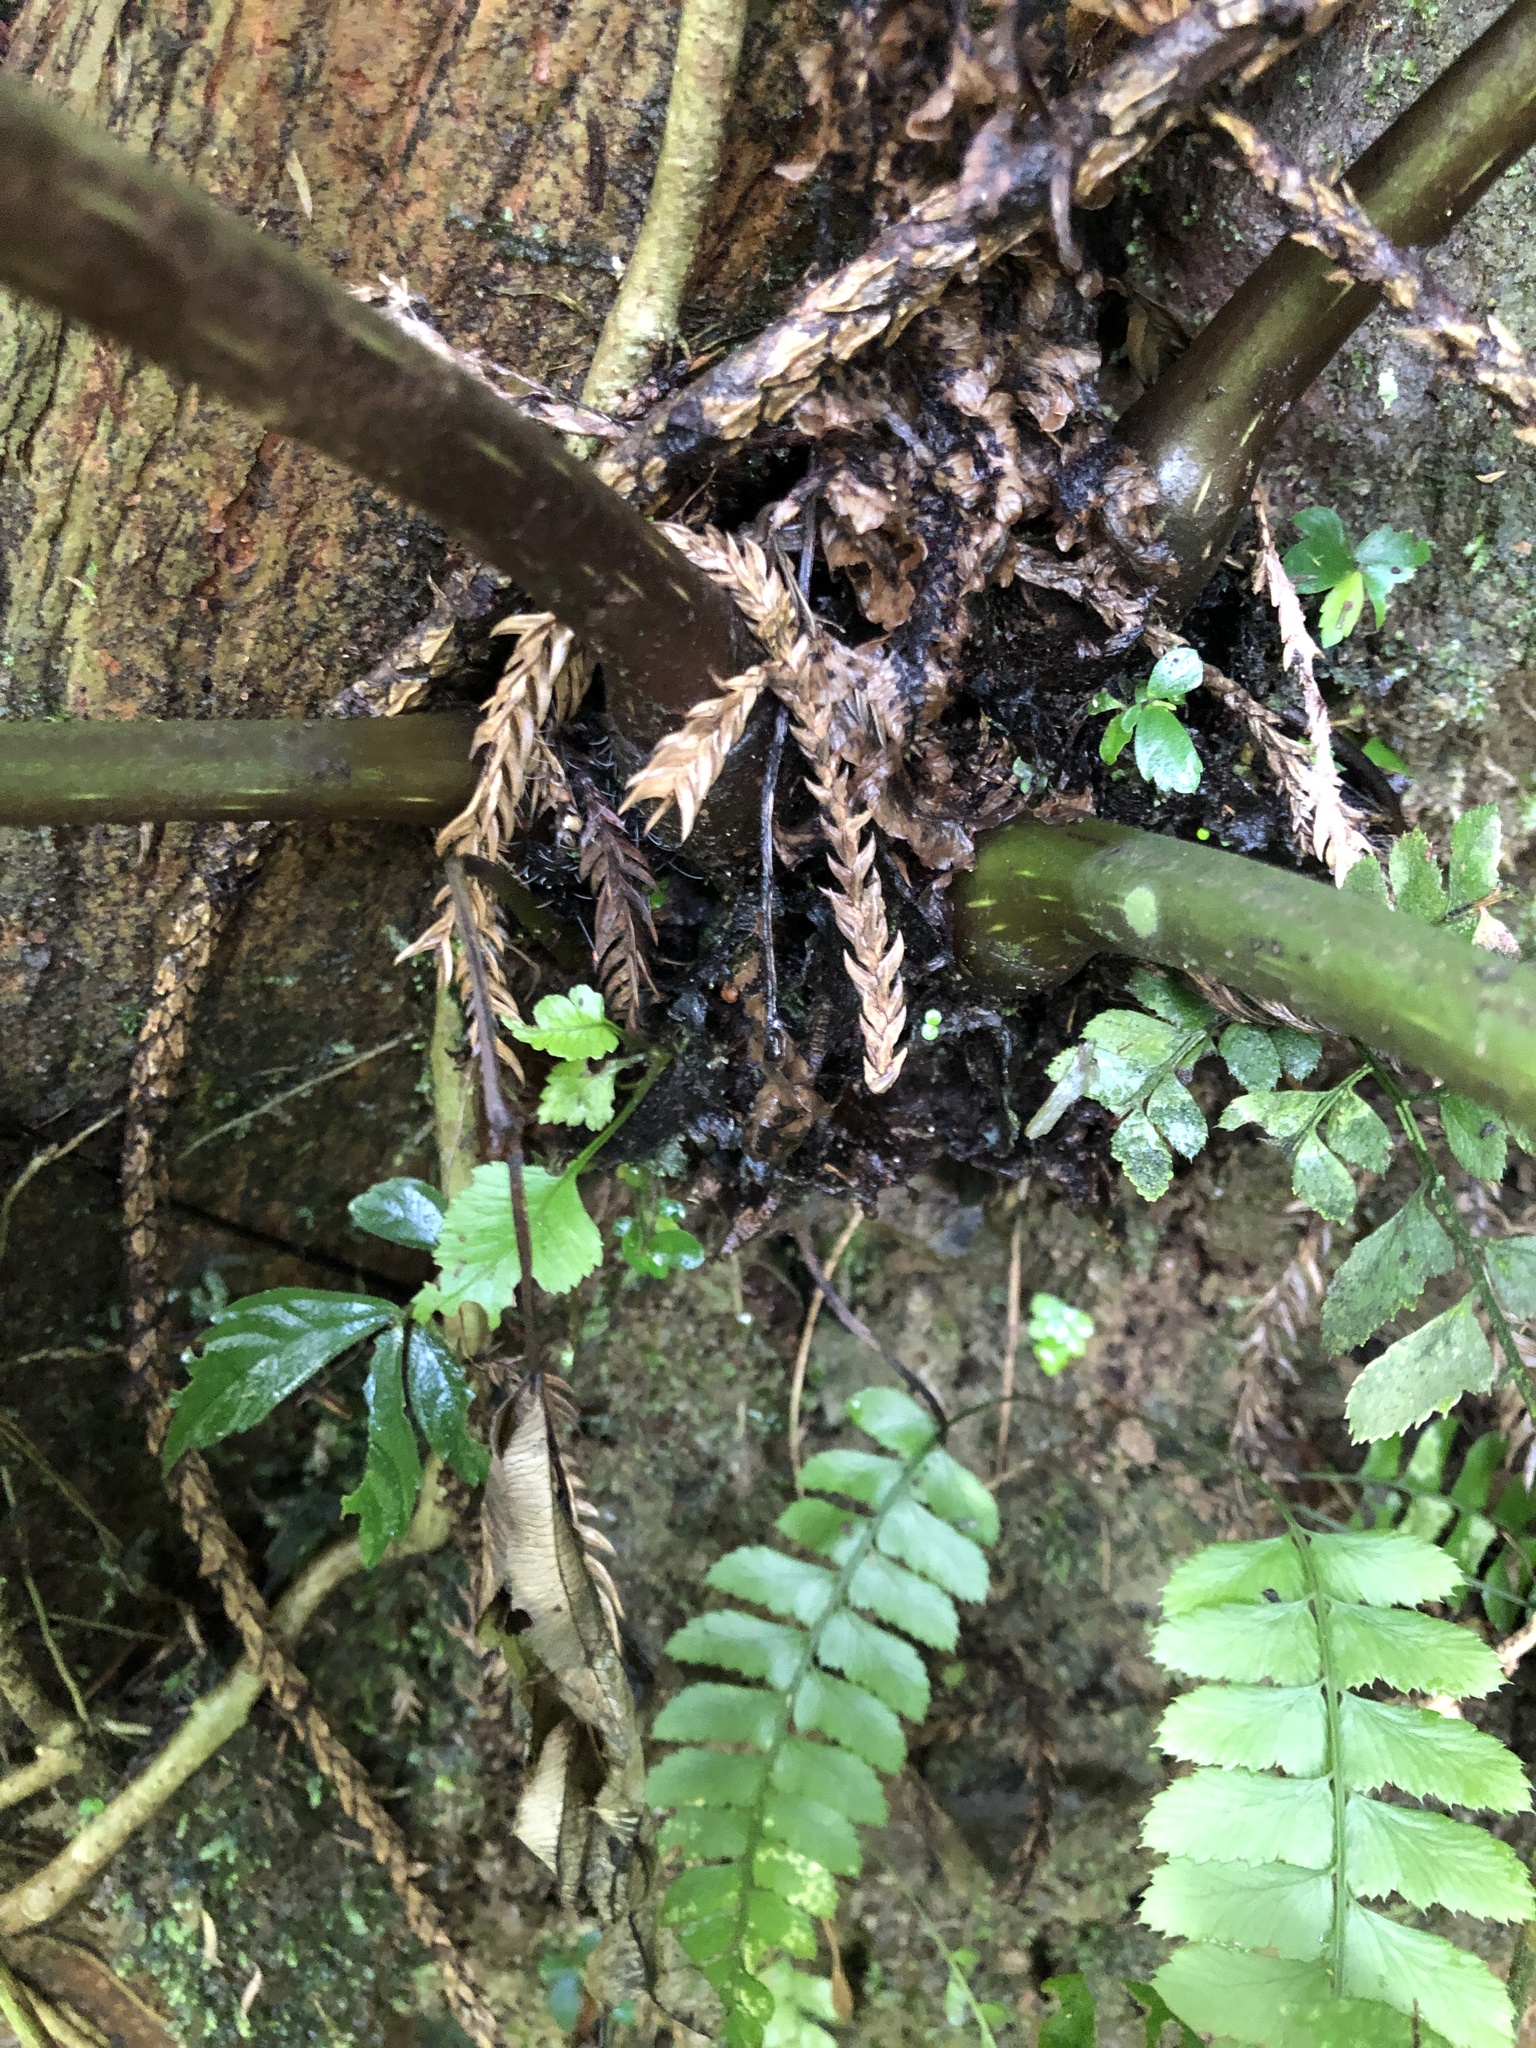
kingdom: Plantae
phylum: Tracheophyta
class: Polypodiopsida
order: Marattiales
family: Marattiaceae
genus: Angiopteris
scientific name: Angiopteris lygodiifolia
